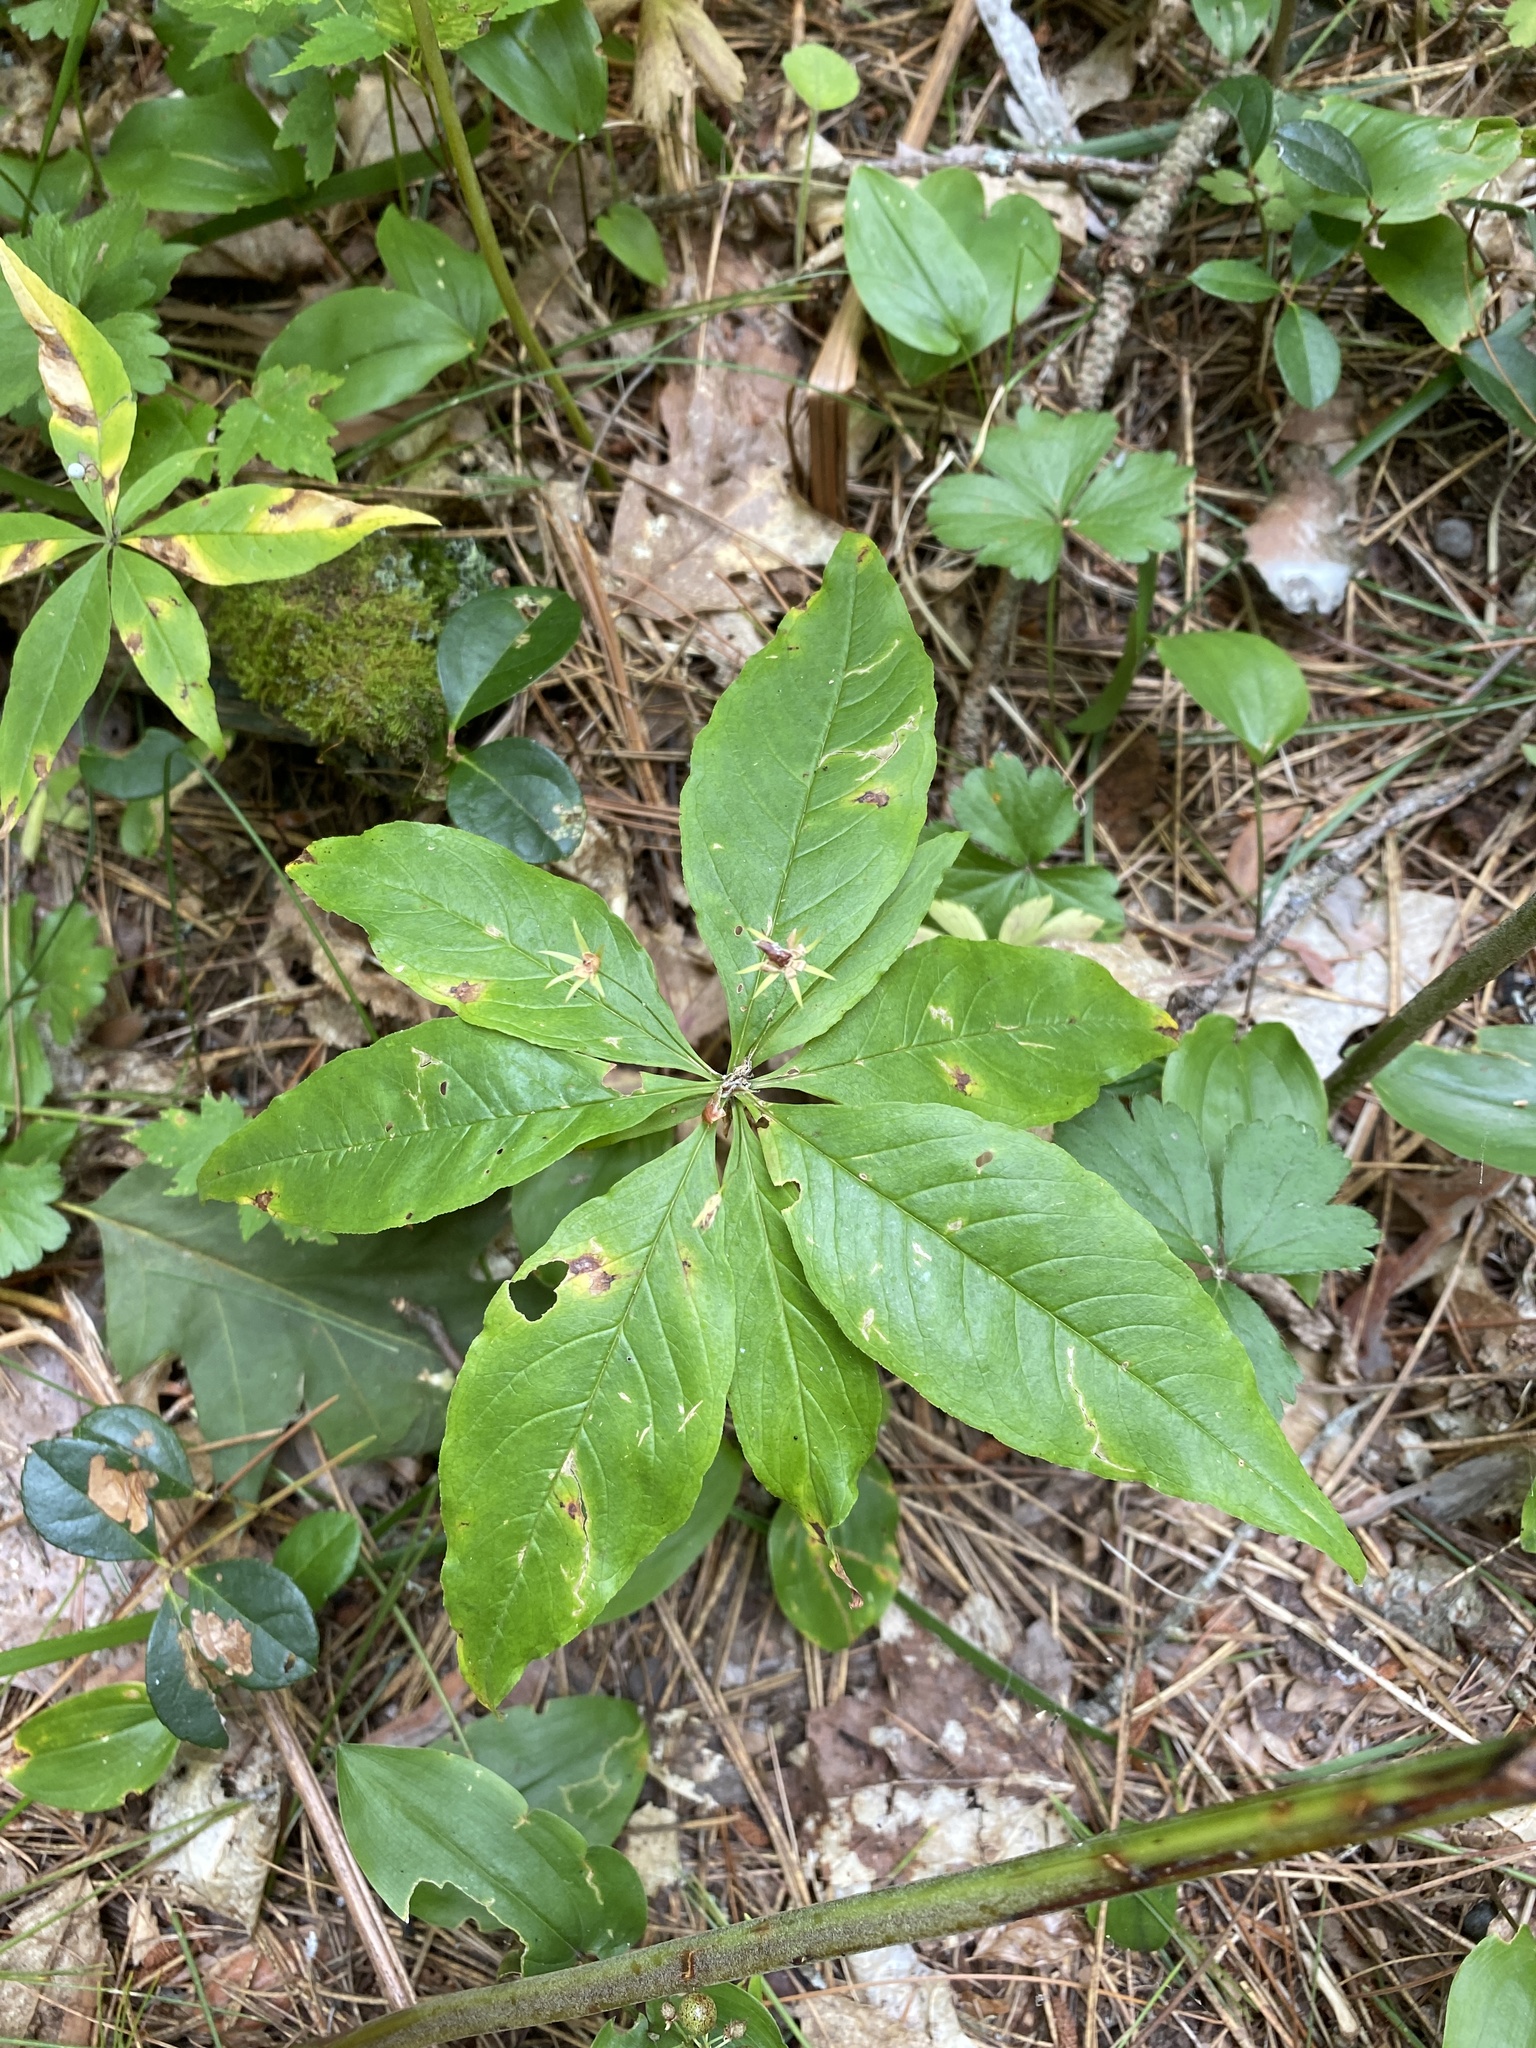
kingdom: Plantae
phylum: Tracheophyta
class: Magnoliopsida
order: Ericales
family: Primulaceae
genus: Lysimachia
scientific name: Lysimachia borealis
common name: American starflower
